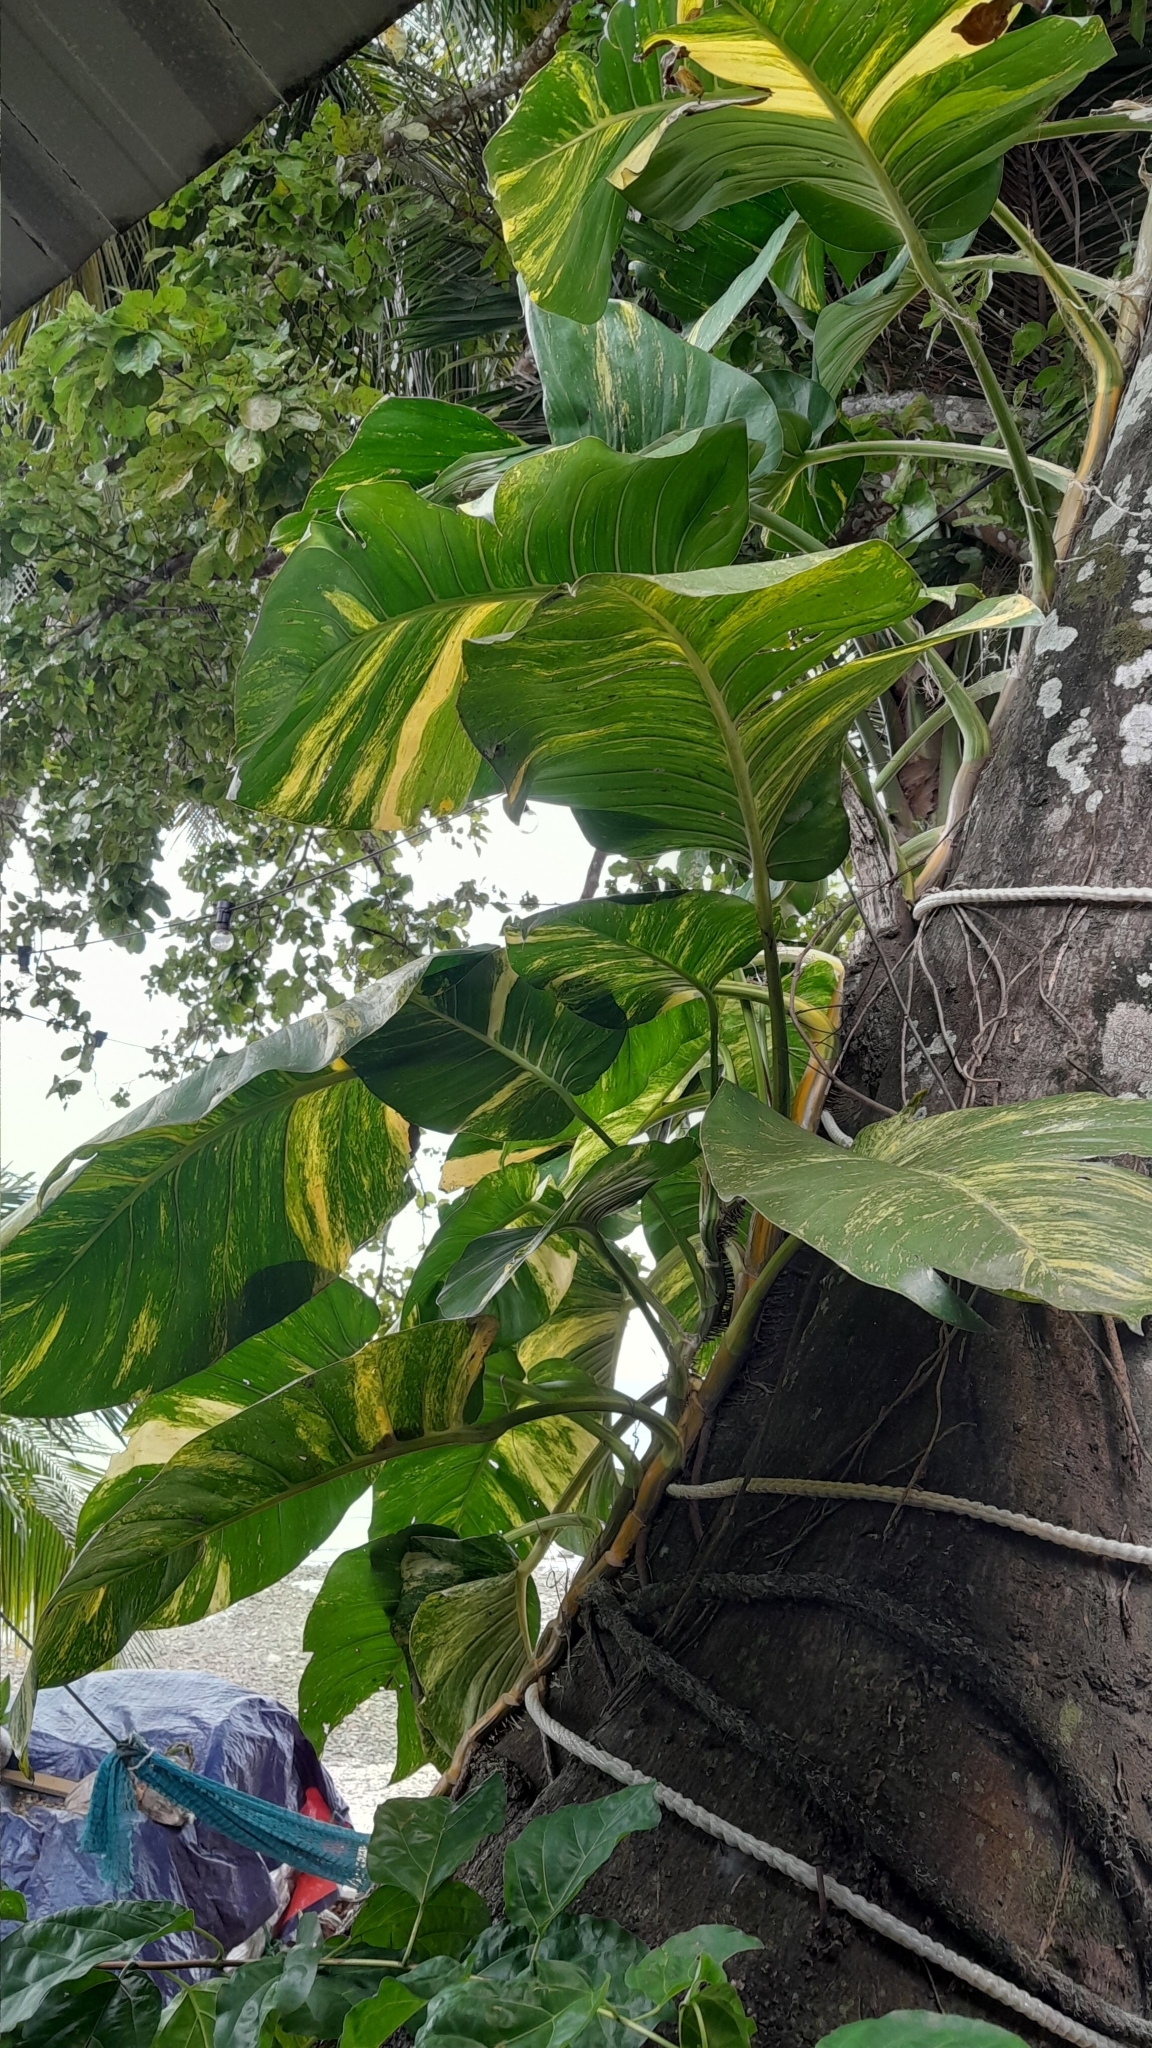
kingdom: Plantae
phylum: Tracheophyta
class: Liliopsida
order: Alismatales
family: Araceae
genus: Epipremnum
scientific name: Epipremnum aureum
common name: Golden hunter's-robe
